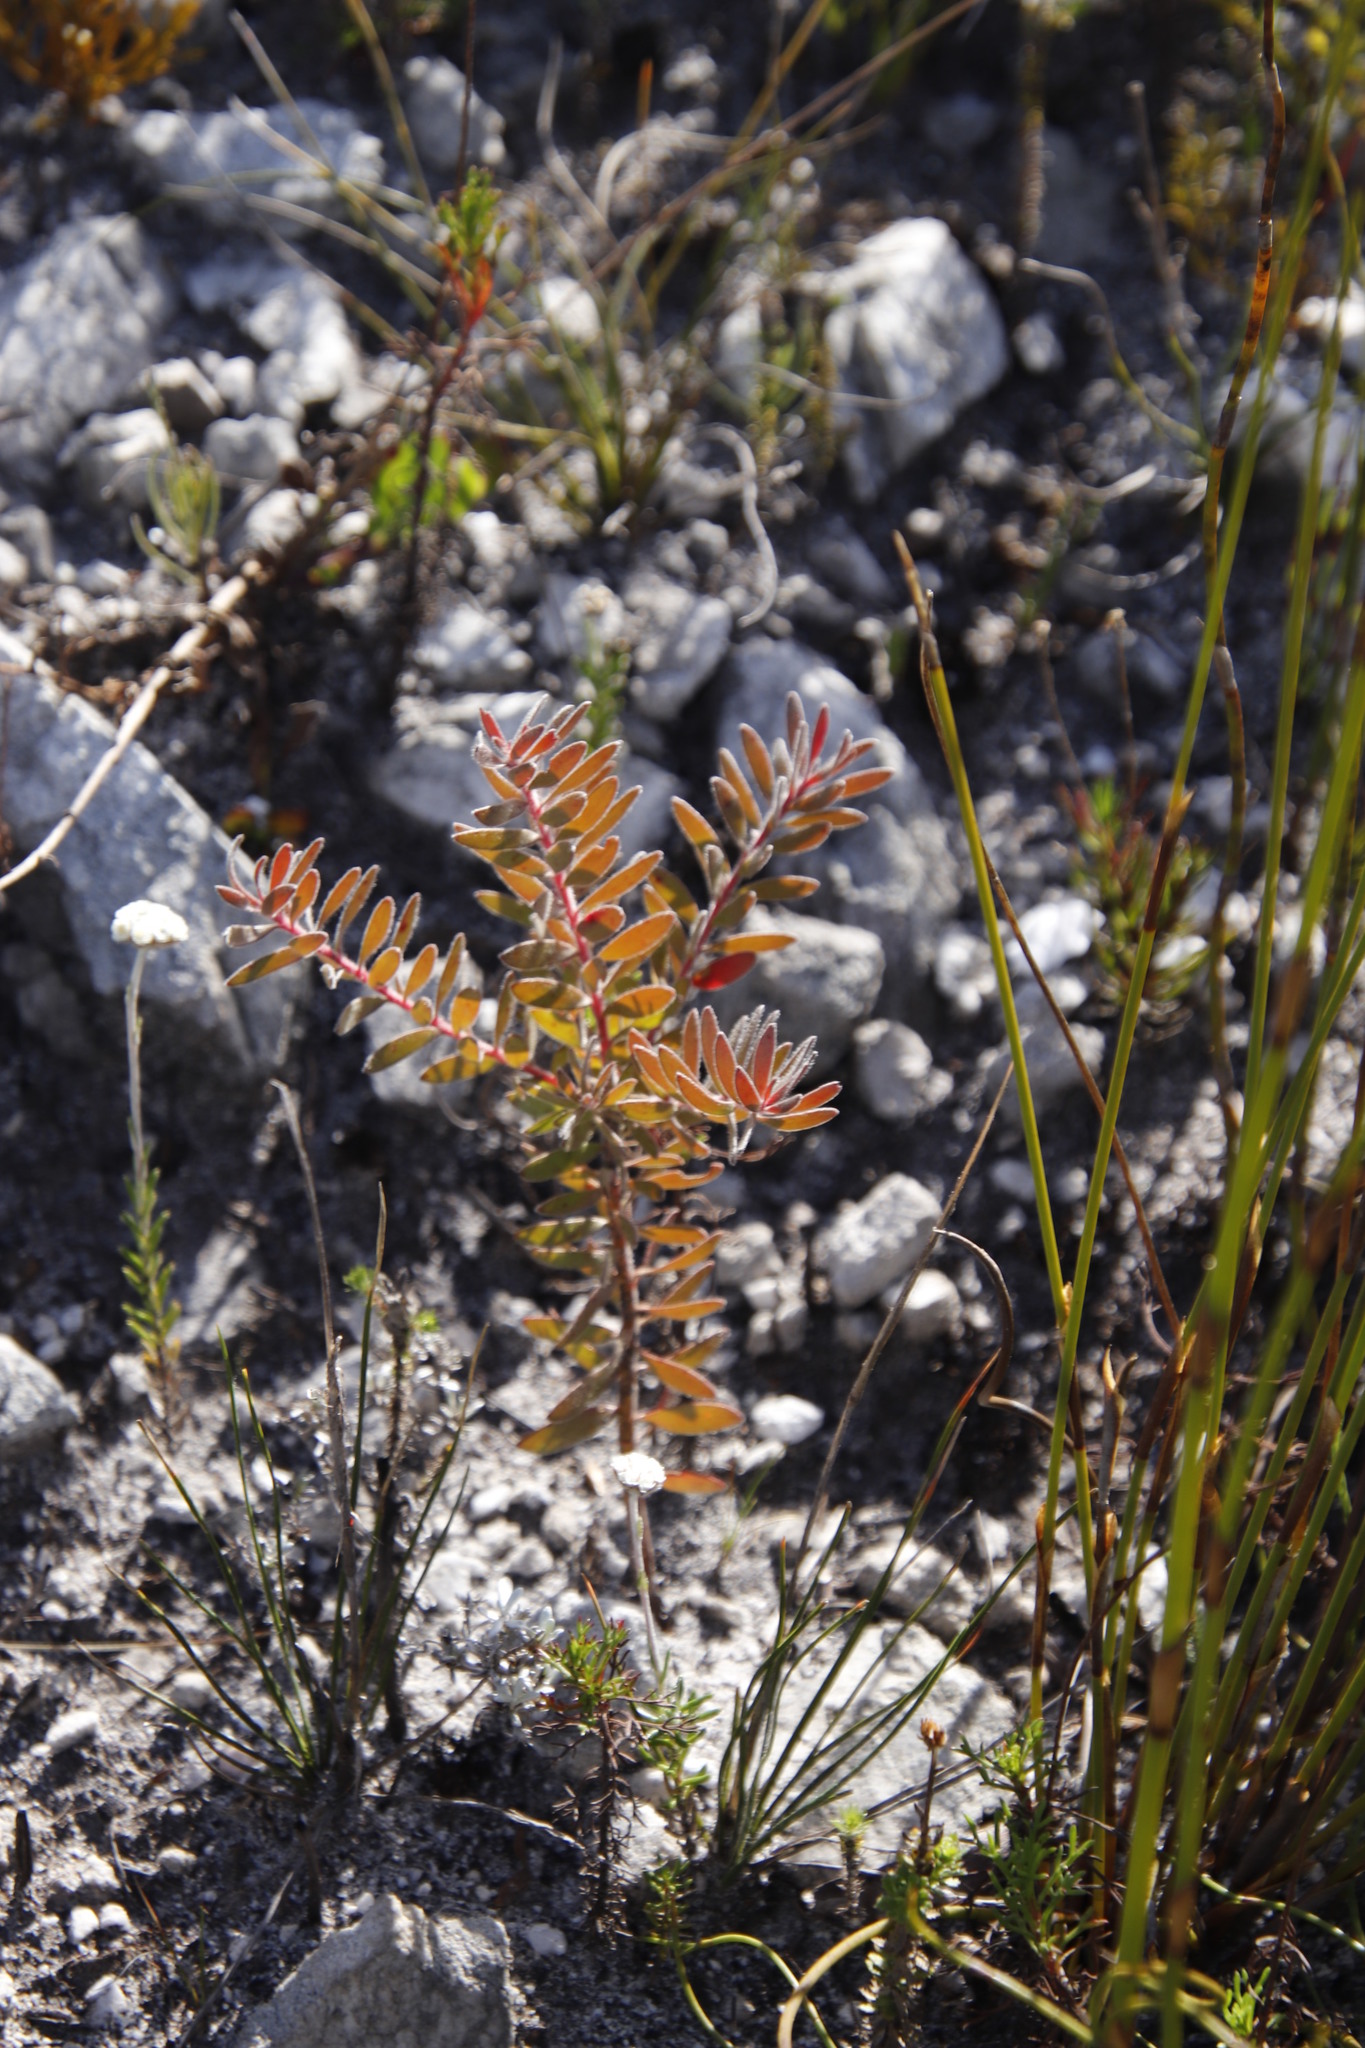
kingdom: Plantae
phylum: Tracheophyta
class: Magnoliopsida
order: Proteales
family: Proteaceae
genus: Diastella
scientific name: Diastella divaricata
